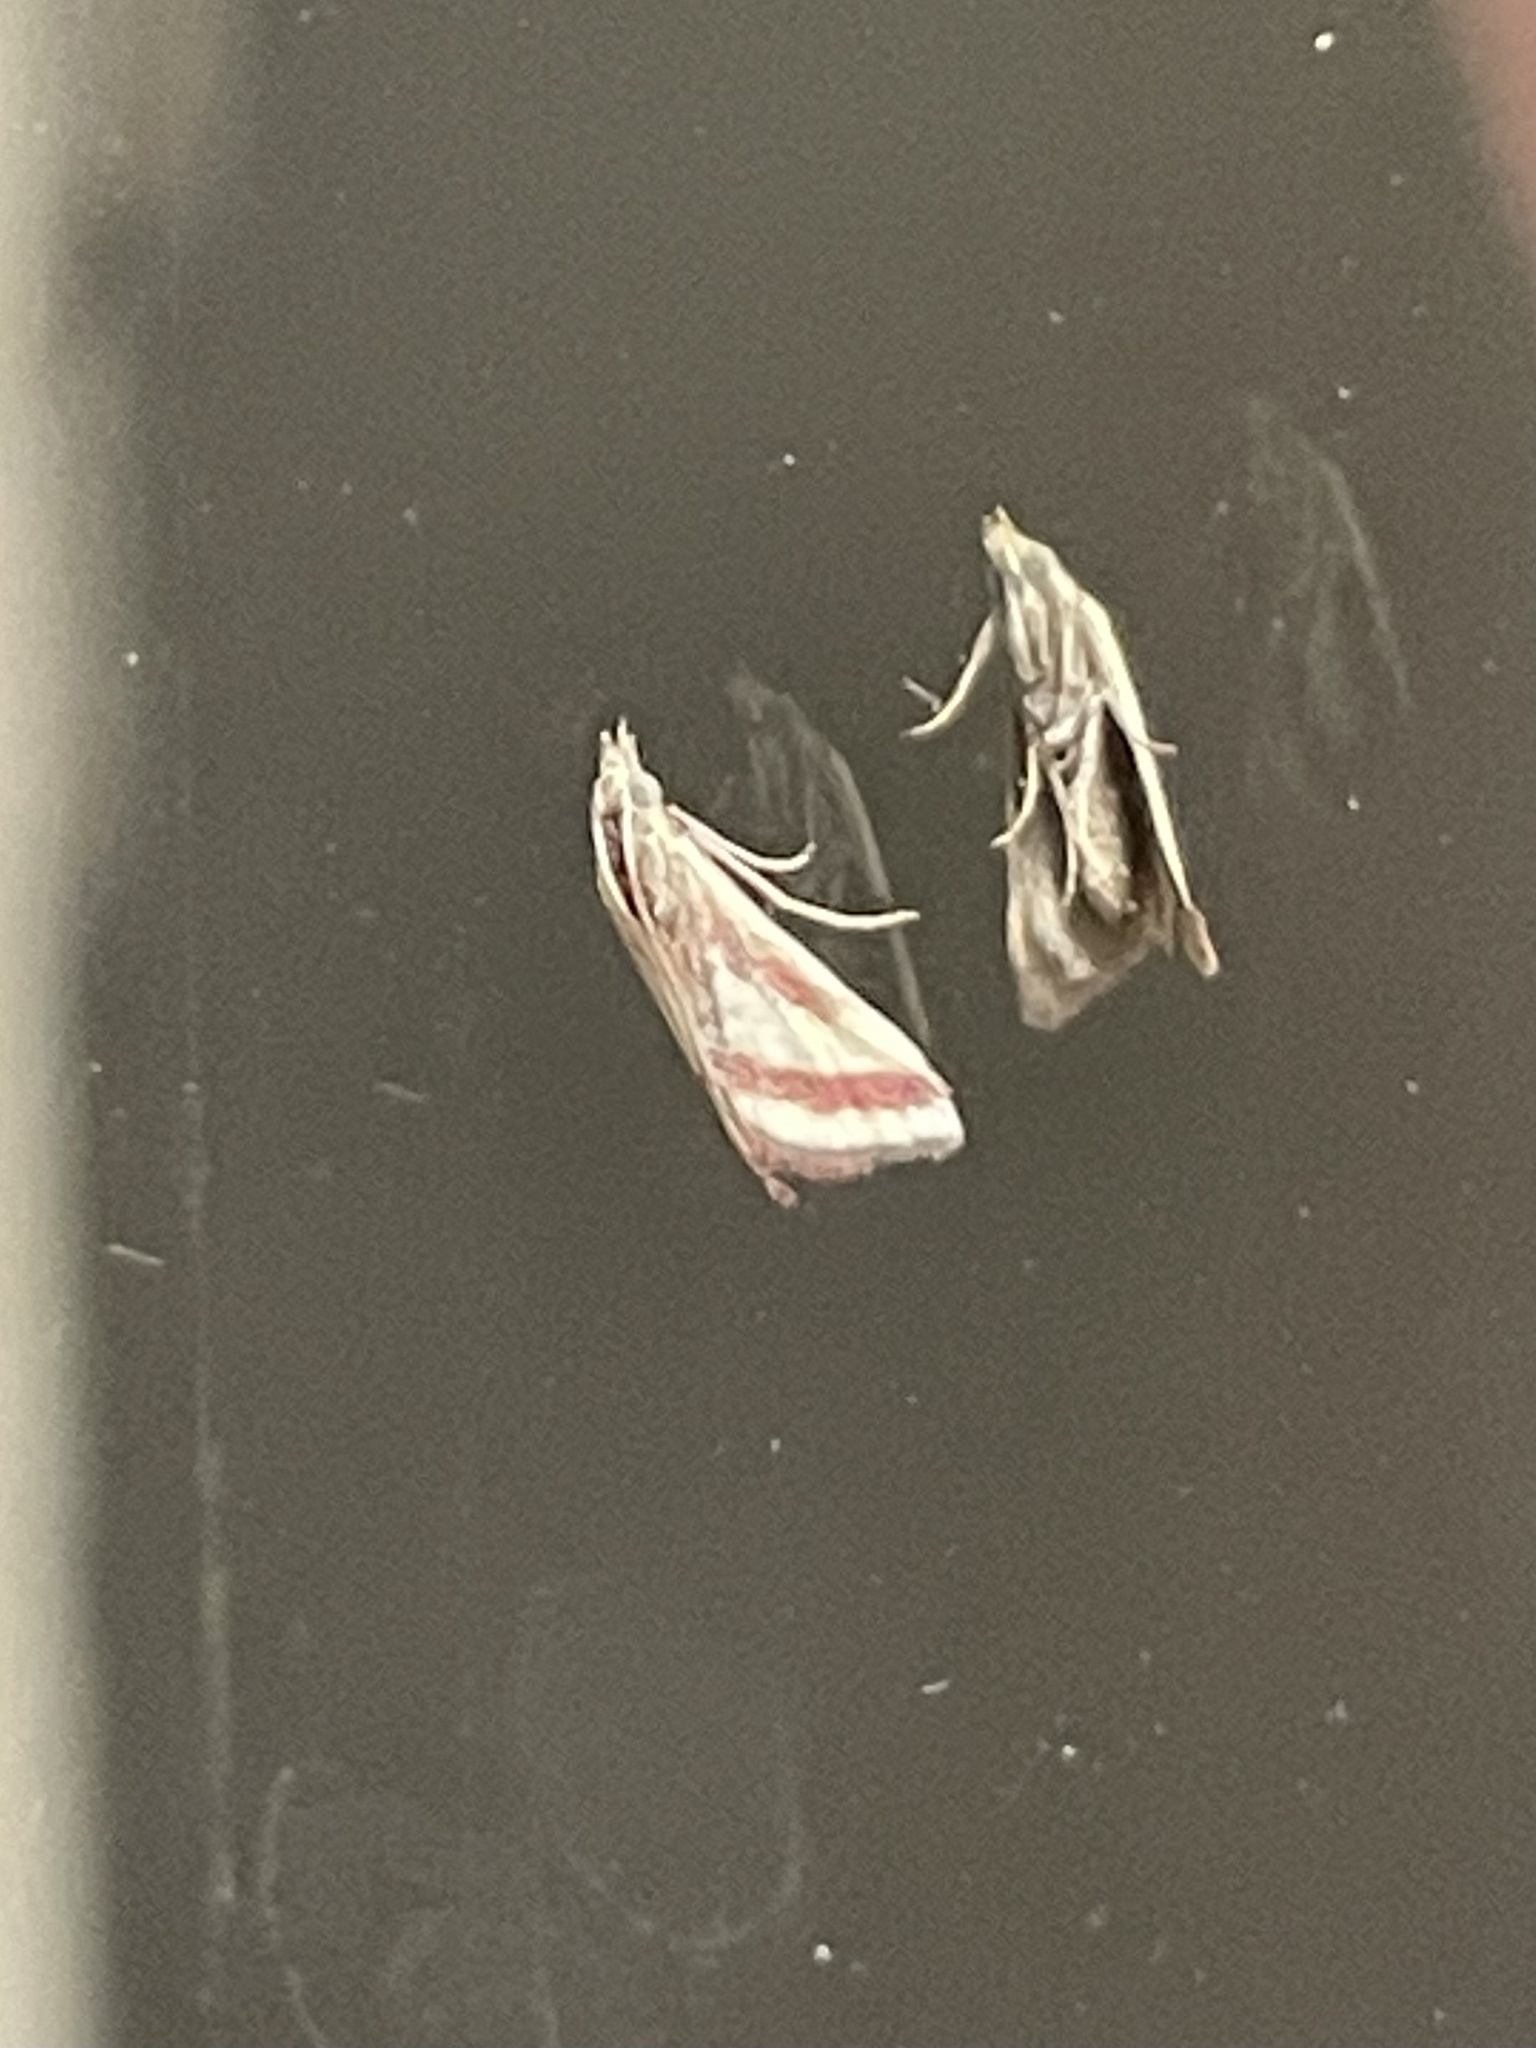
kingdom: Animalia
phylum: Arthropoda
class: Insecta
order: Lepidoptera
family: Crambidae
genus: Microtheoris
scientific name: Microtheoris vibicalis
